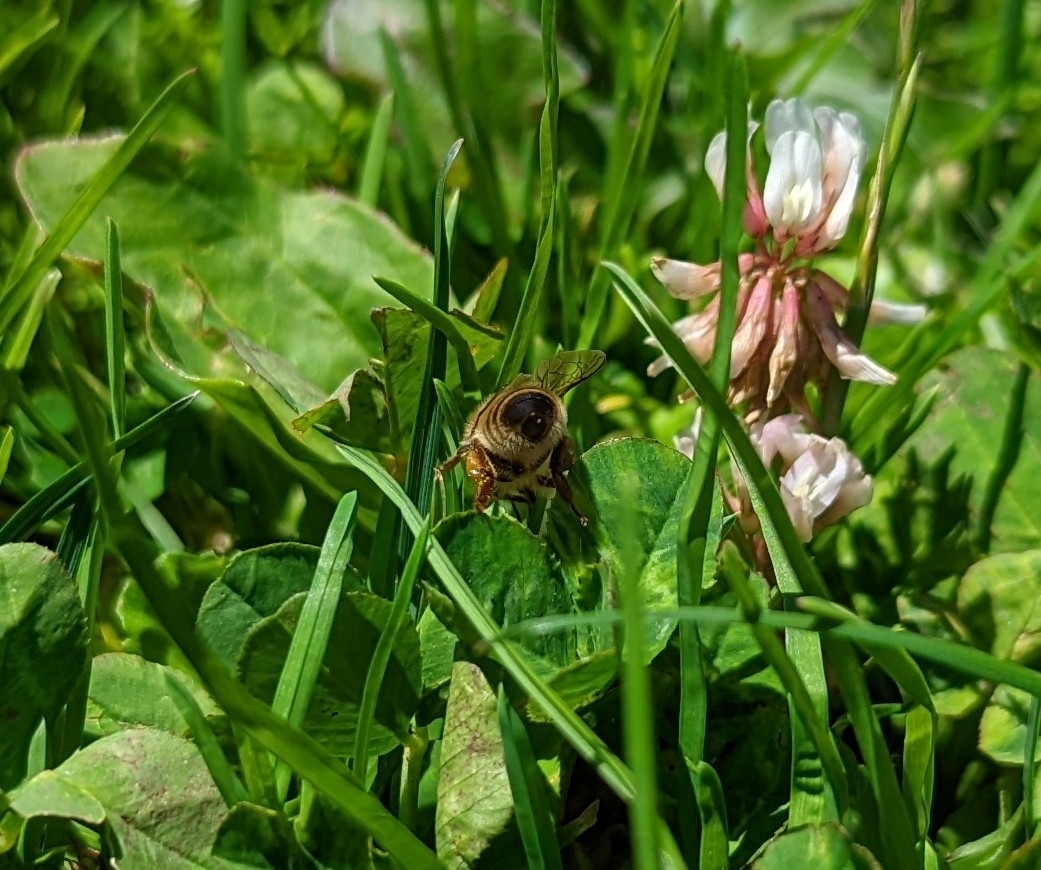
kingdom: Animalia
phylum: Arthropoda
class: Insecta
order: Hymenoptera
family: Apidae
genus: Apis
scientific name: Apis mellifera
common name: Honey bee
